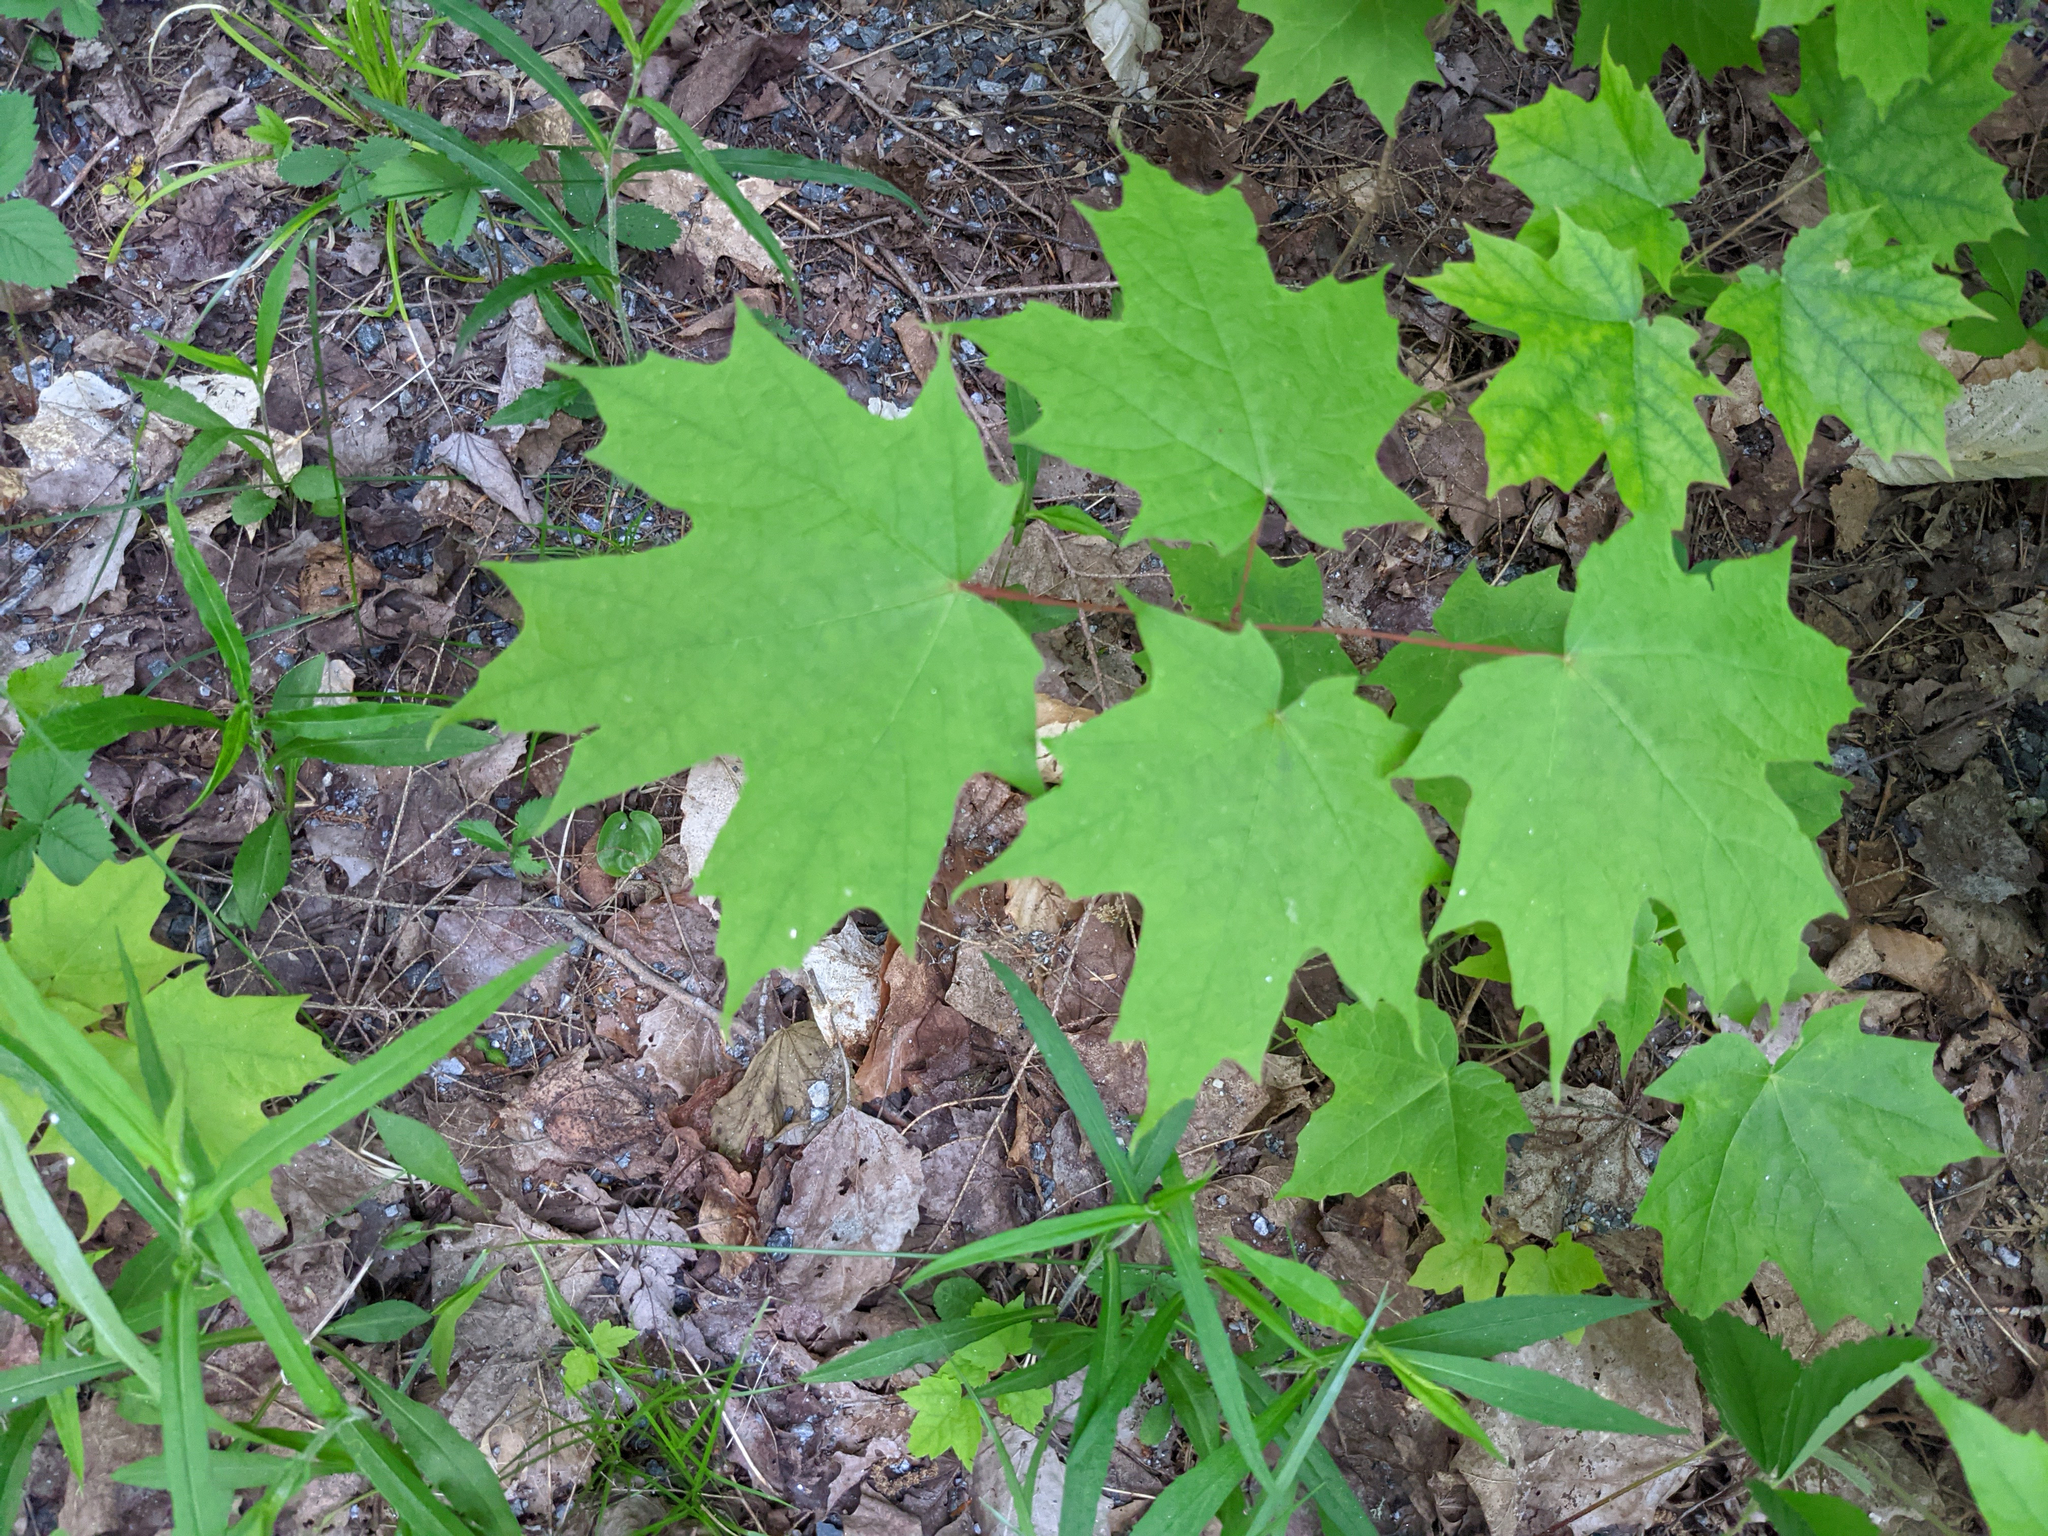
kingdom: Plantae
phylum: Tracheophyta
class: Magnoliopsida
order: Sapindales
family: Sapindaceae
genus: Acer
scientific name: Acer saccharum
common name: Sugar maple
